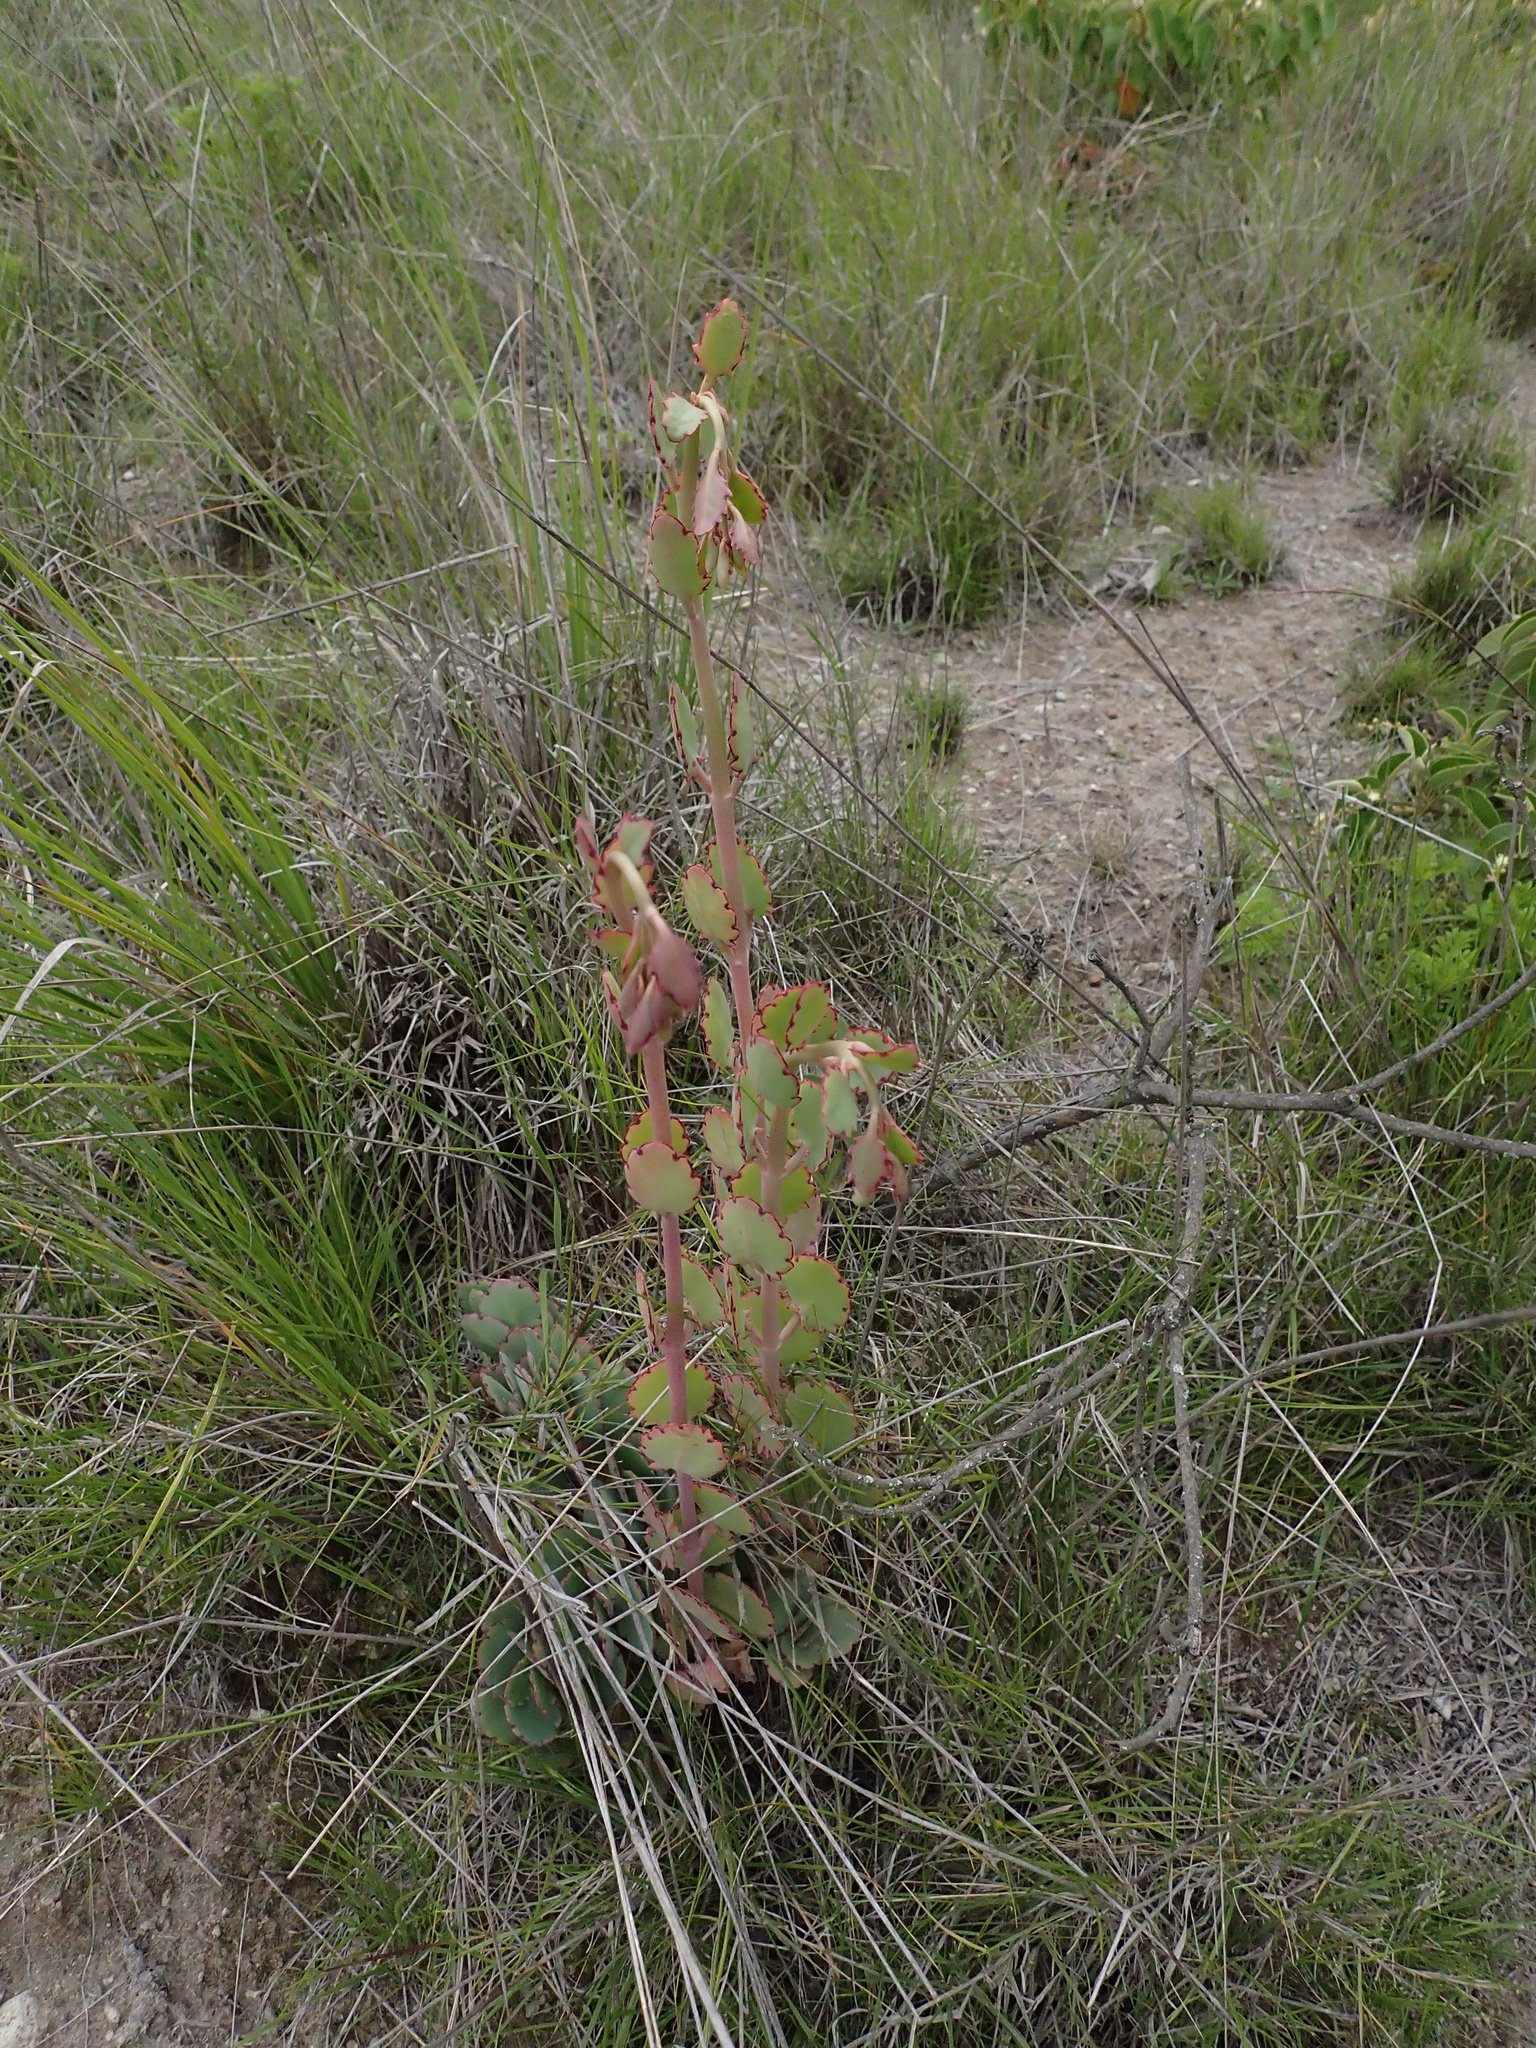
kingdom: Plantae
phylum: Tracheophyta
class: Magnoliopsida
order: Saxifragales
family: Crassulaceae
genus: Kalanchoe
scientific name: Kalanchoe laxiflora
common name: Milky widow's thrill
